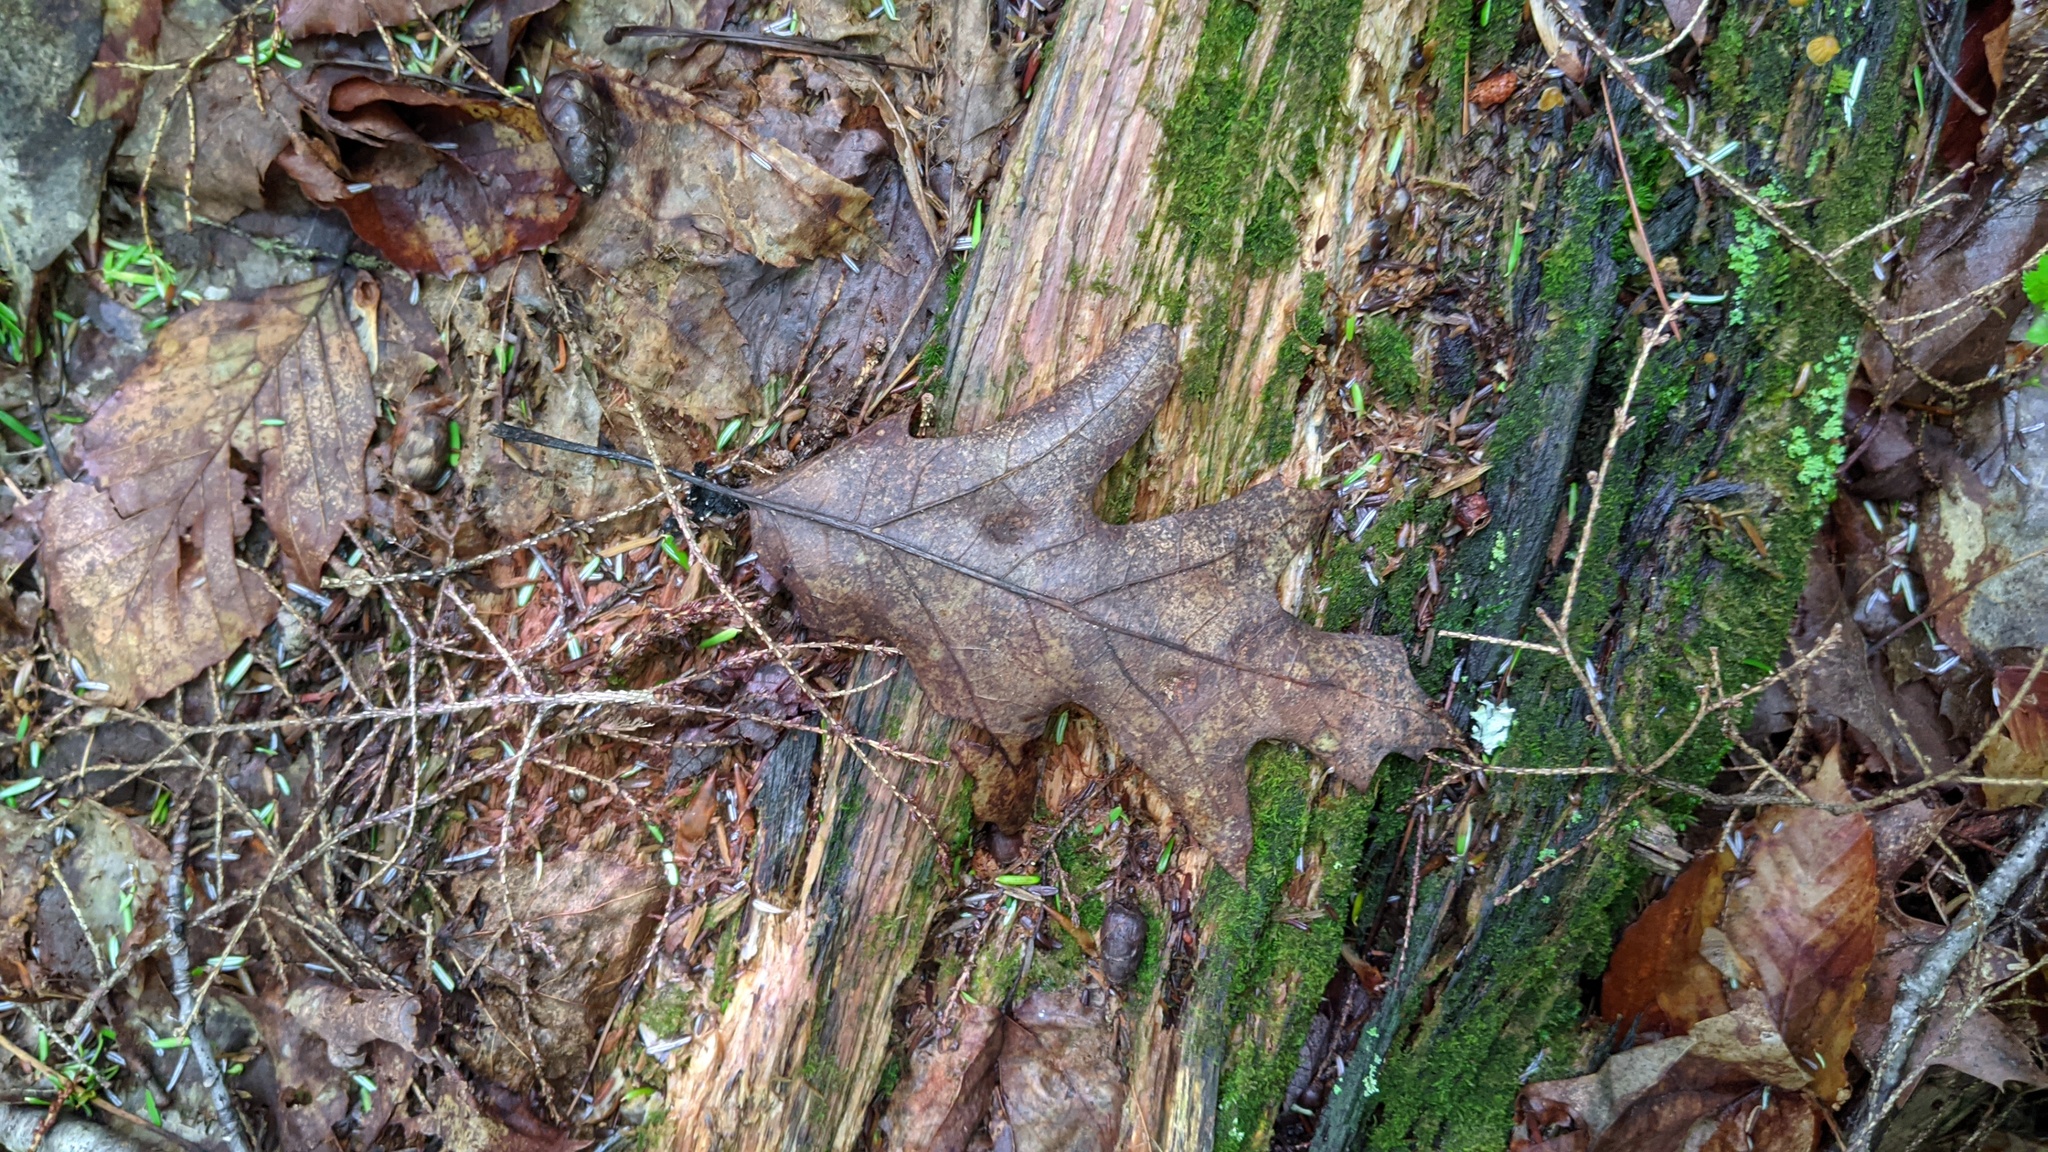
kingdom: Plantae
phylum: Tracheophyta
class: Magnoliopsida
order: Fagales
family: Fagaceae
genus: Quercus
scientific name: Quercus rubra
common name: Red oak
